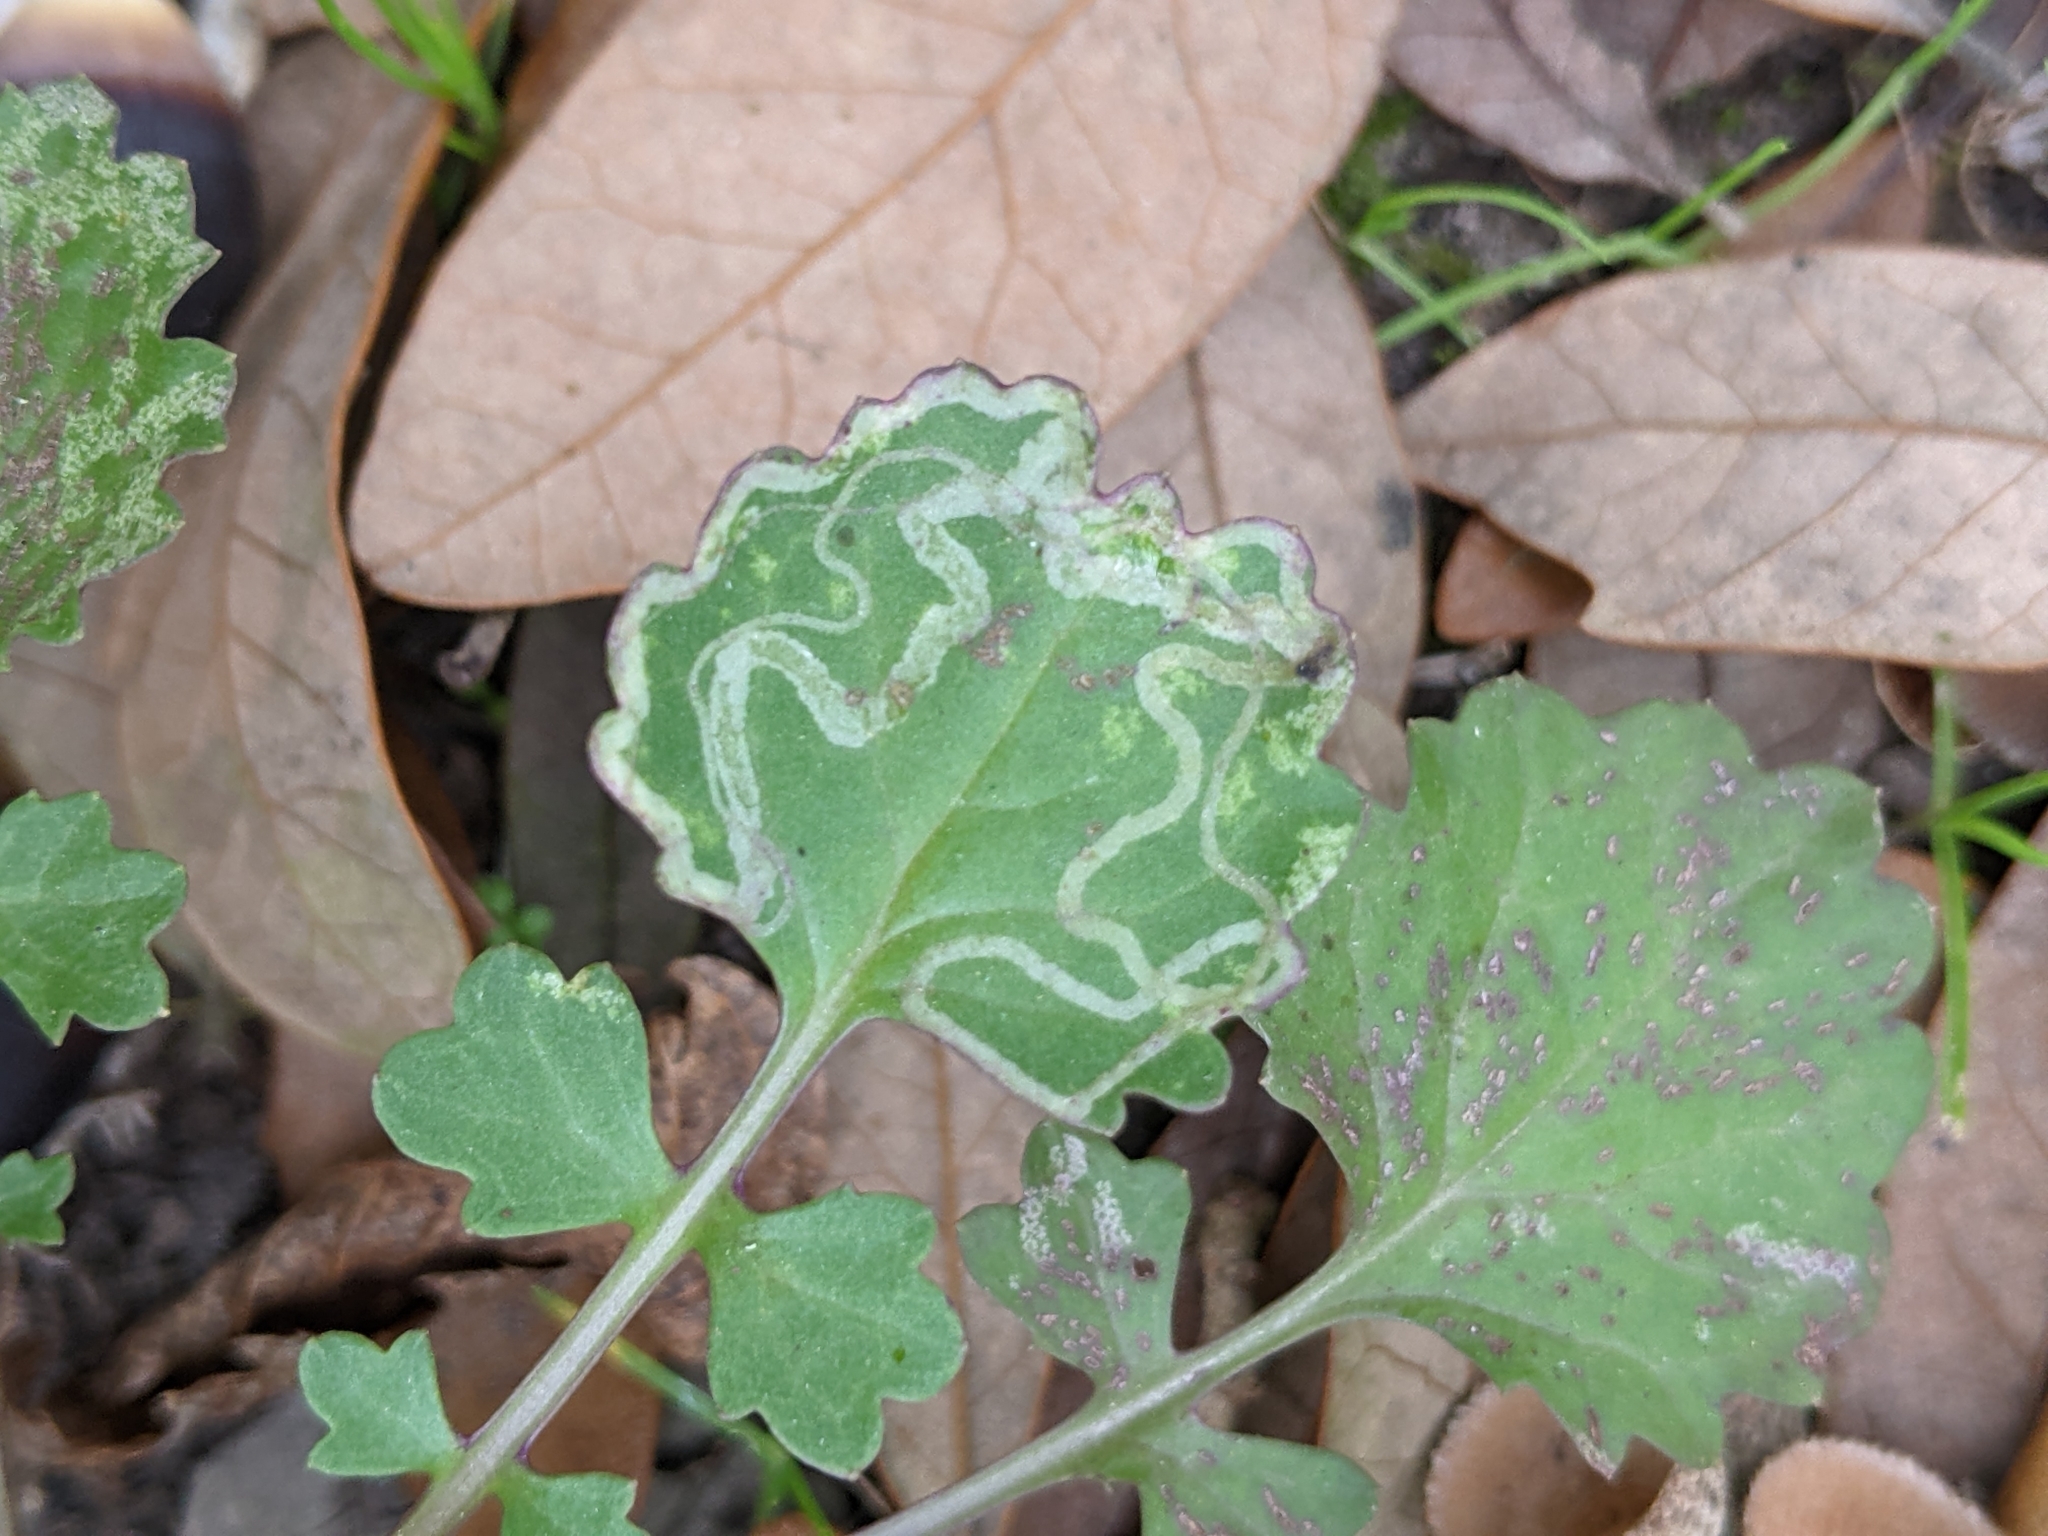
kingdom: Plantae
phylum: Tracheophyta
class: Magnoliopsida
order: Asterales
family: Asteraceae
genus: Packera
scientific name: Packera glabella
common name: Butterweed
